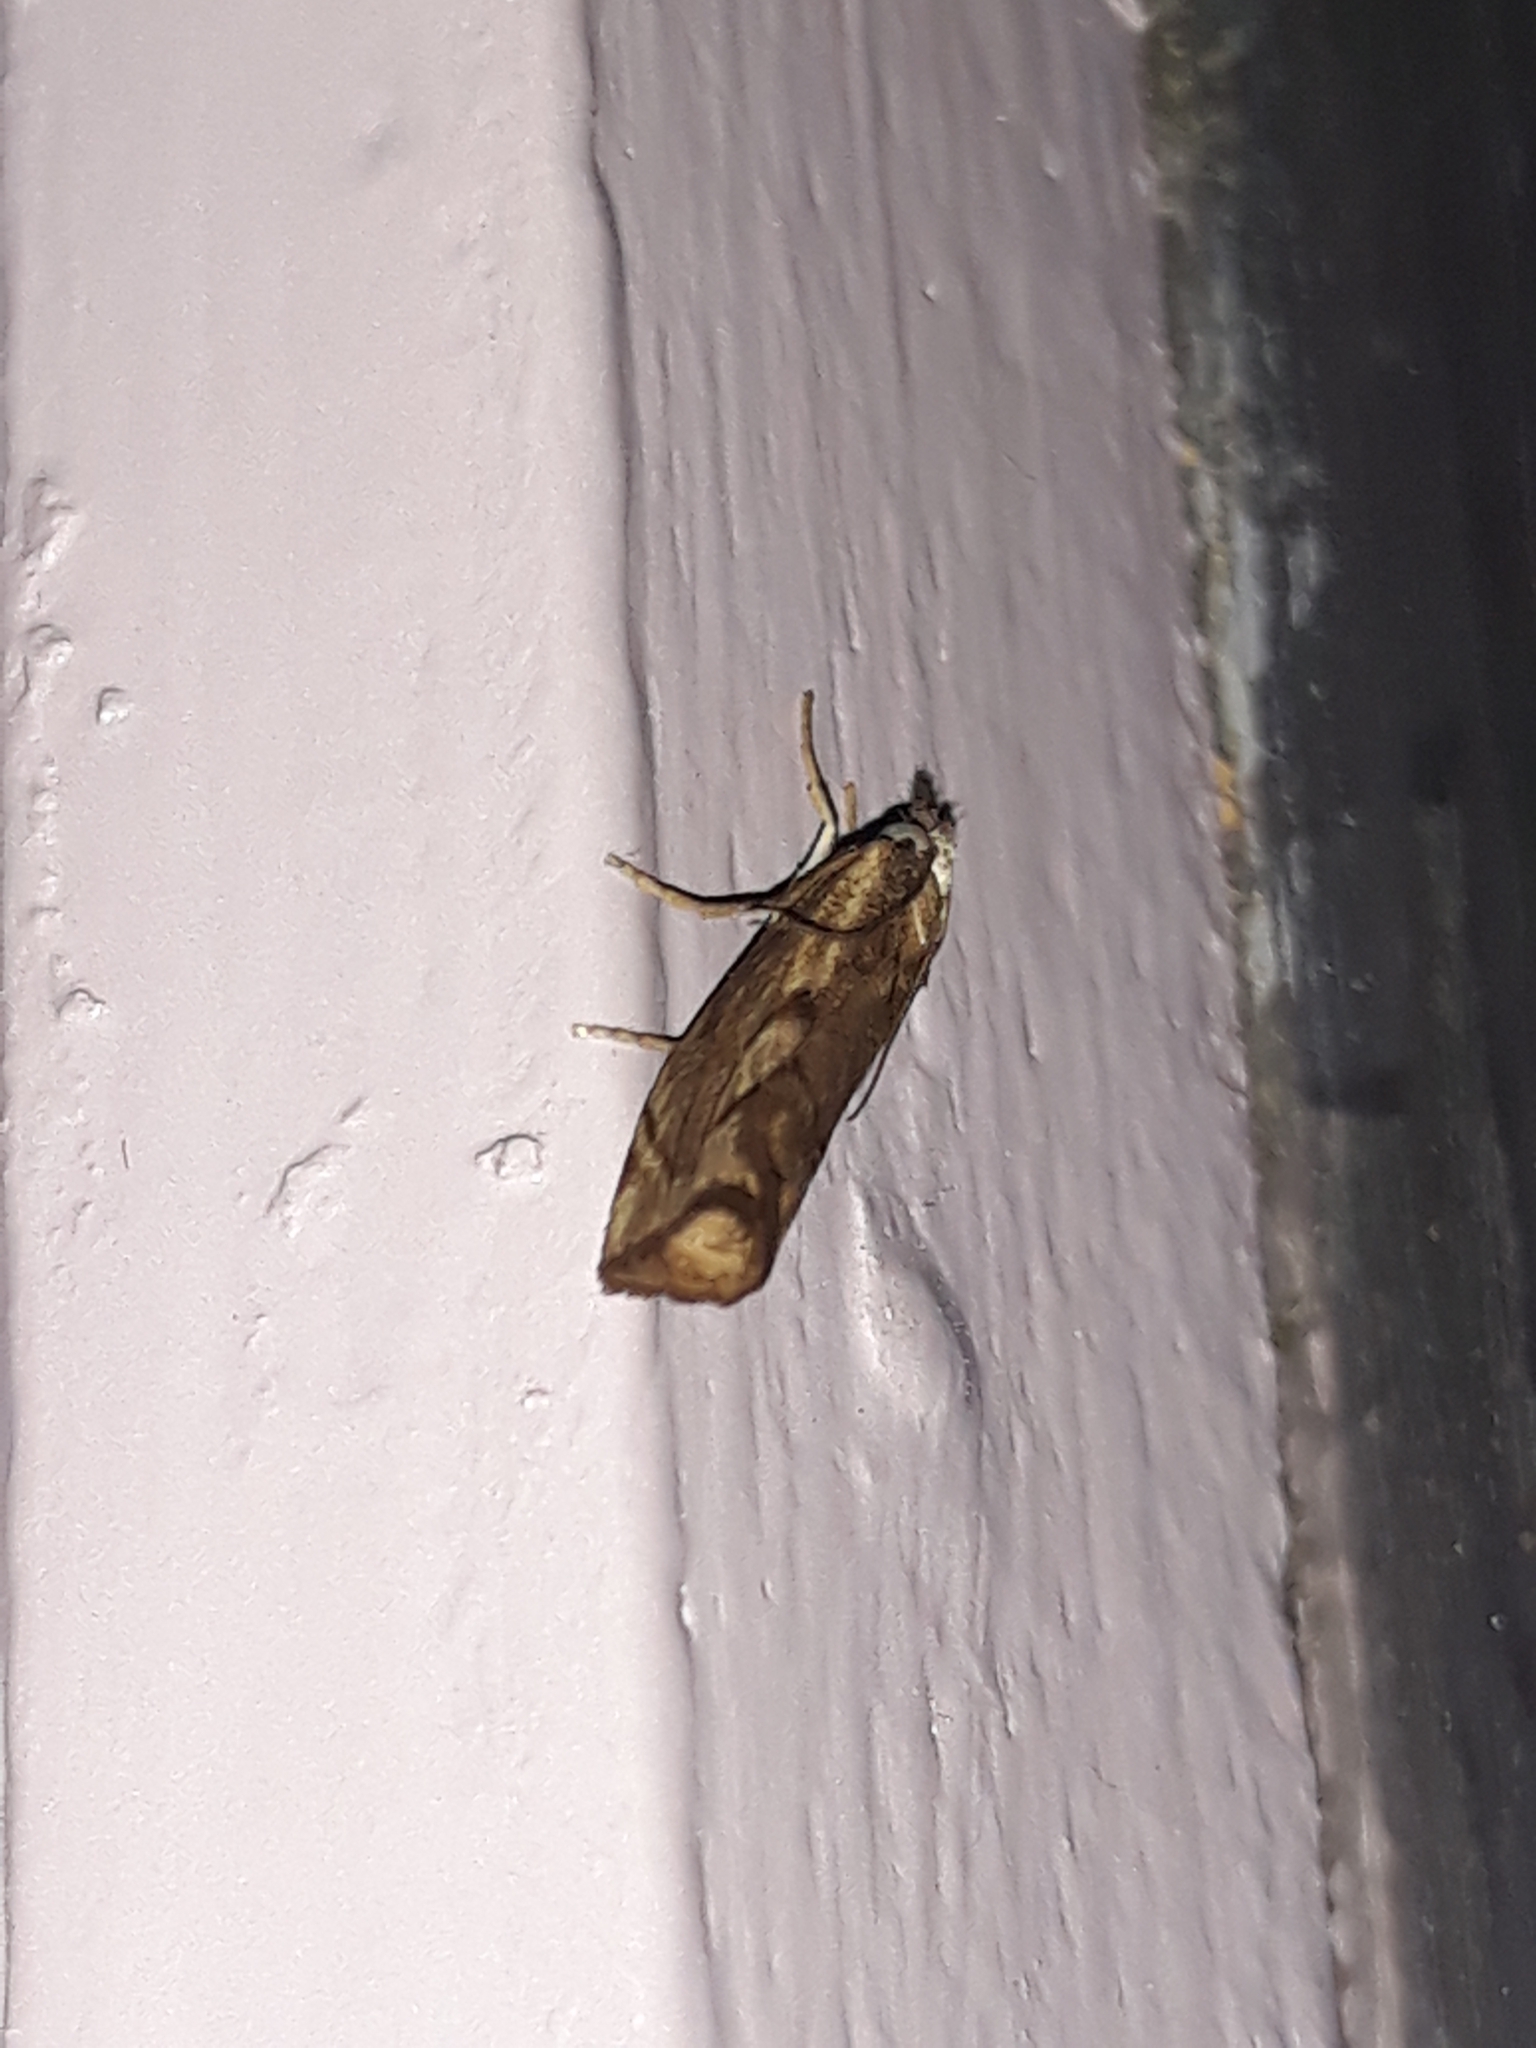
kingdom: Animalia
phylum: Arthropoda
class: Insecta
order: Lepidoptera
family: Crambidae
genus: Agriphila
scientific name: Agriphila geniculea
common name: Elbow-stripe grass-veneer
